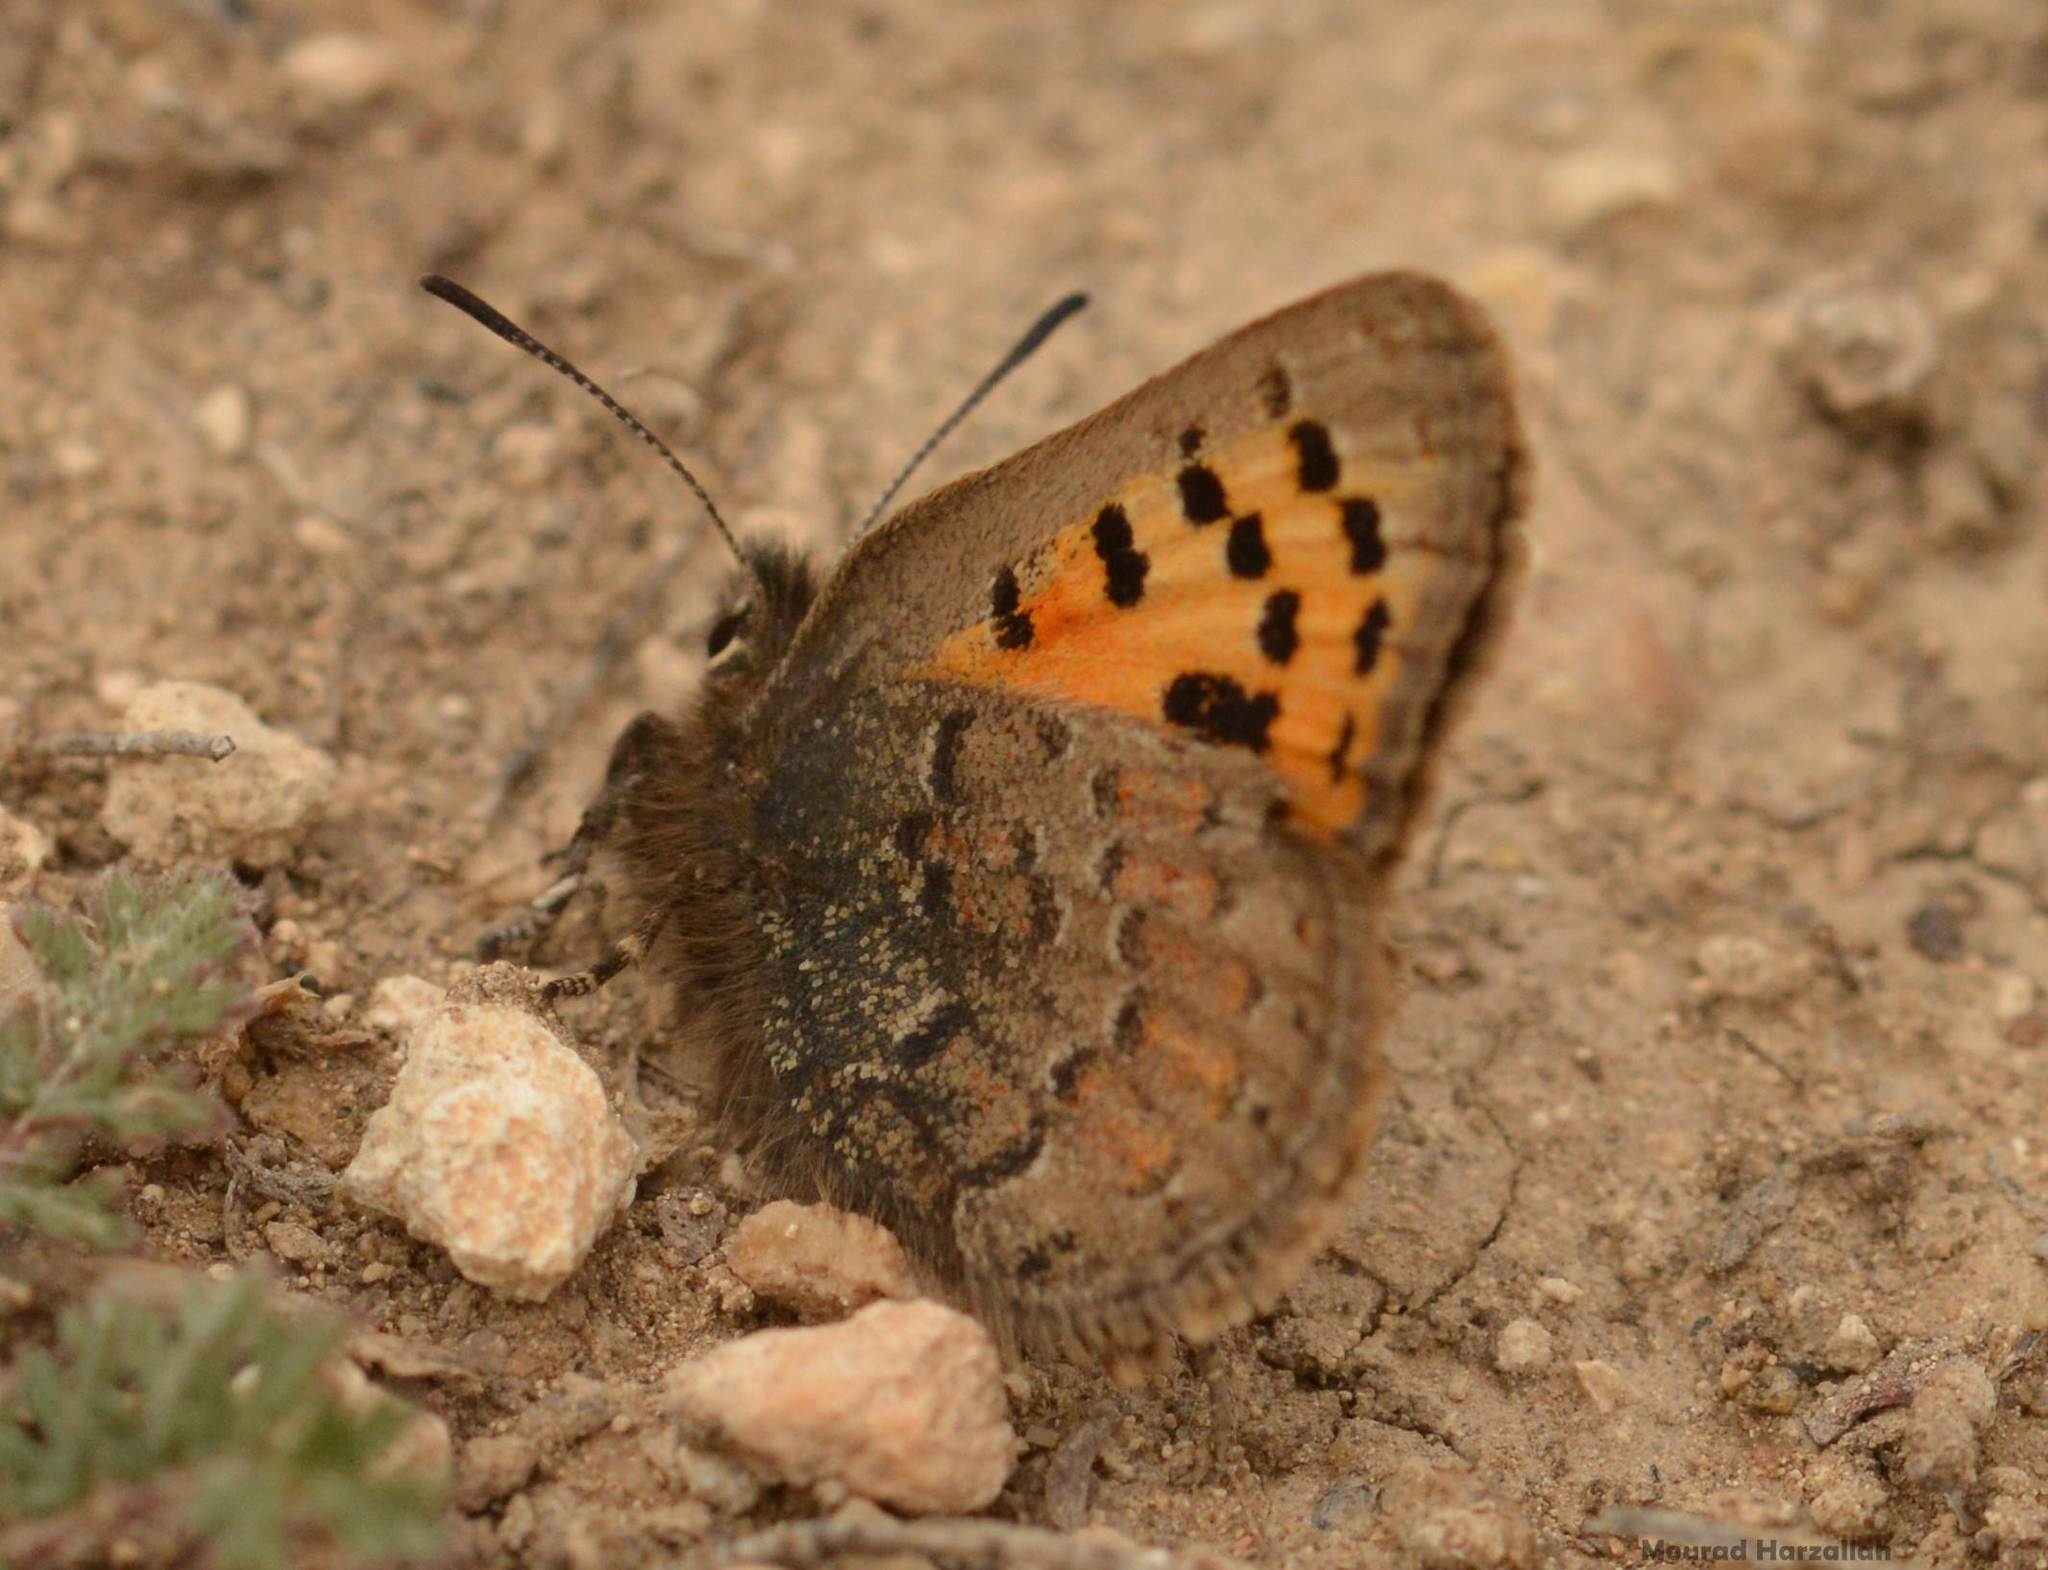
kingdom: Animalia
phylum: Arthropoda
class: Insecta
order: Lepidoptera
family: Lycaenidae
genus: Tomares
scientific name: Tomares mauritanicus
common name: Moroccan hairstreak
